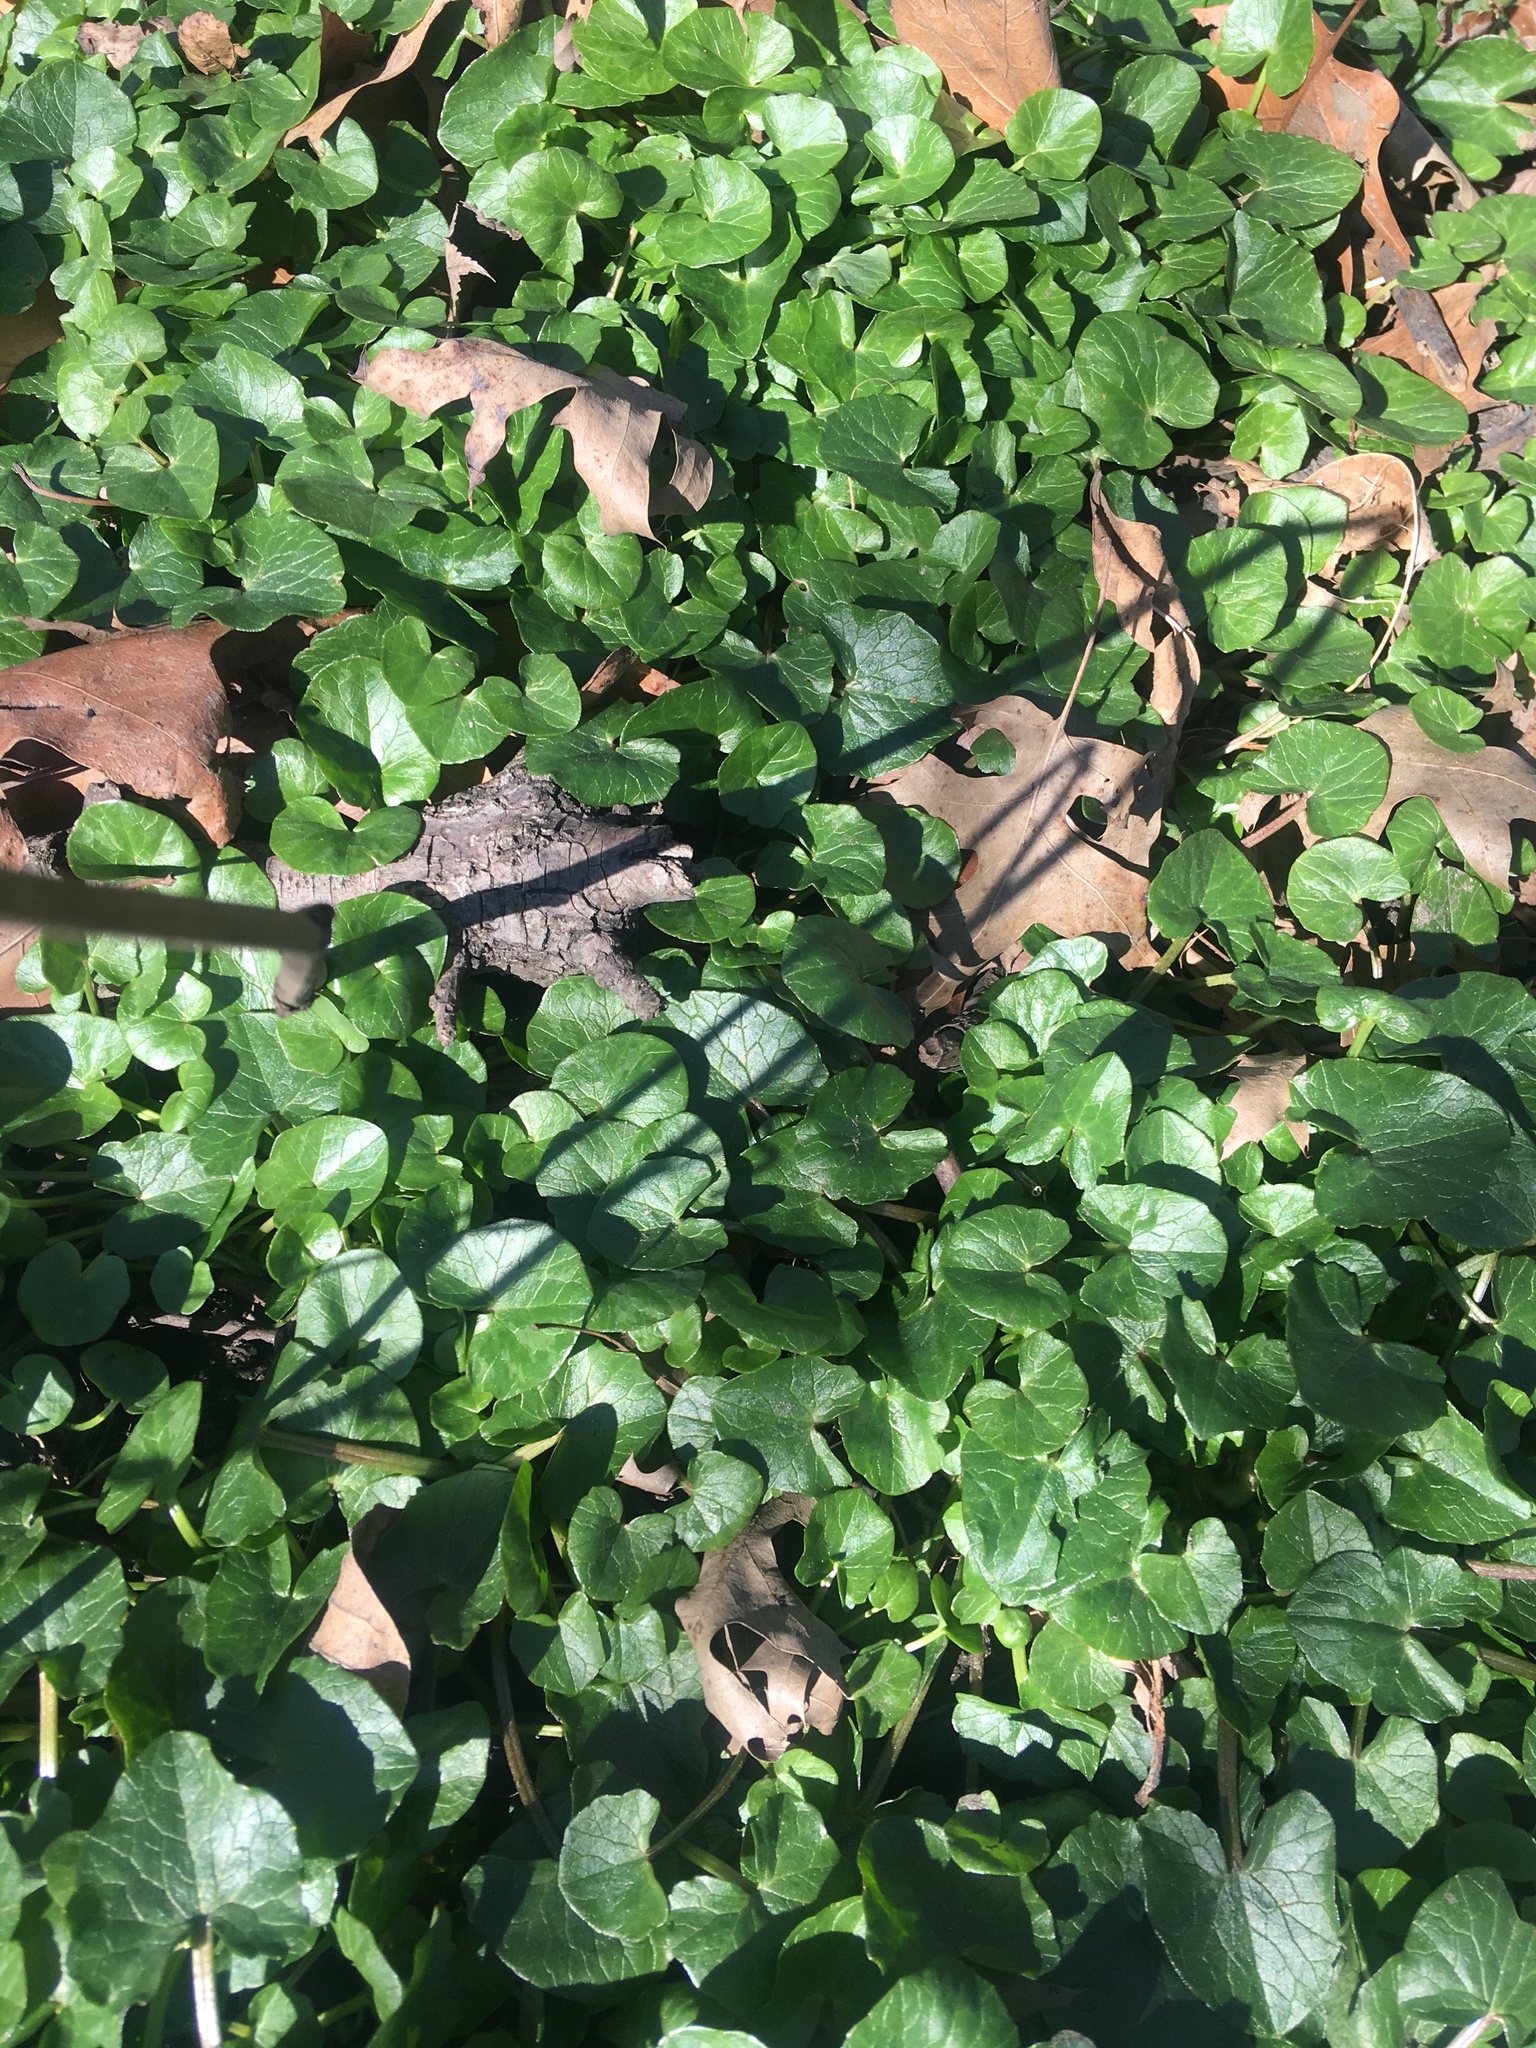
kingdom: Plantae
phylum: Tracheophyta
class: Magnoliopsida
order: Ranunculales
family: Ranunculaceae
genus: Ficaria
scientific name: Ficaria verna
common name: Lesser celandine
